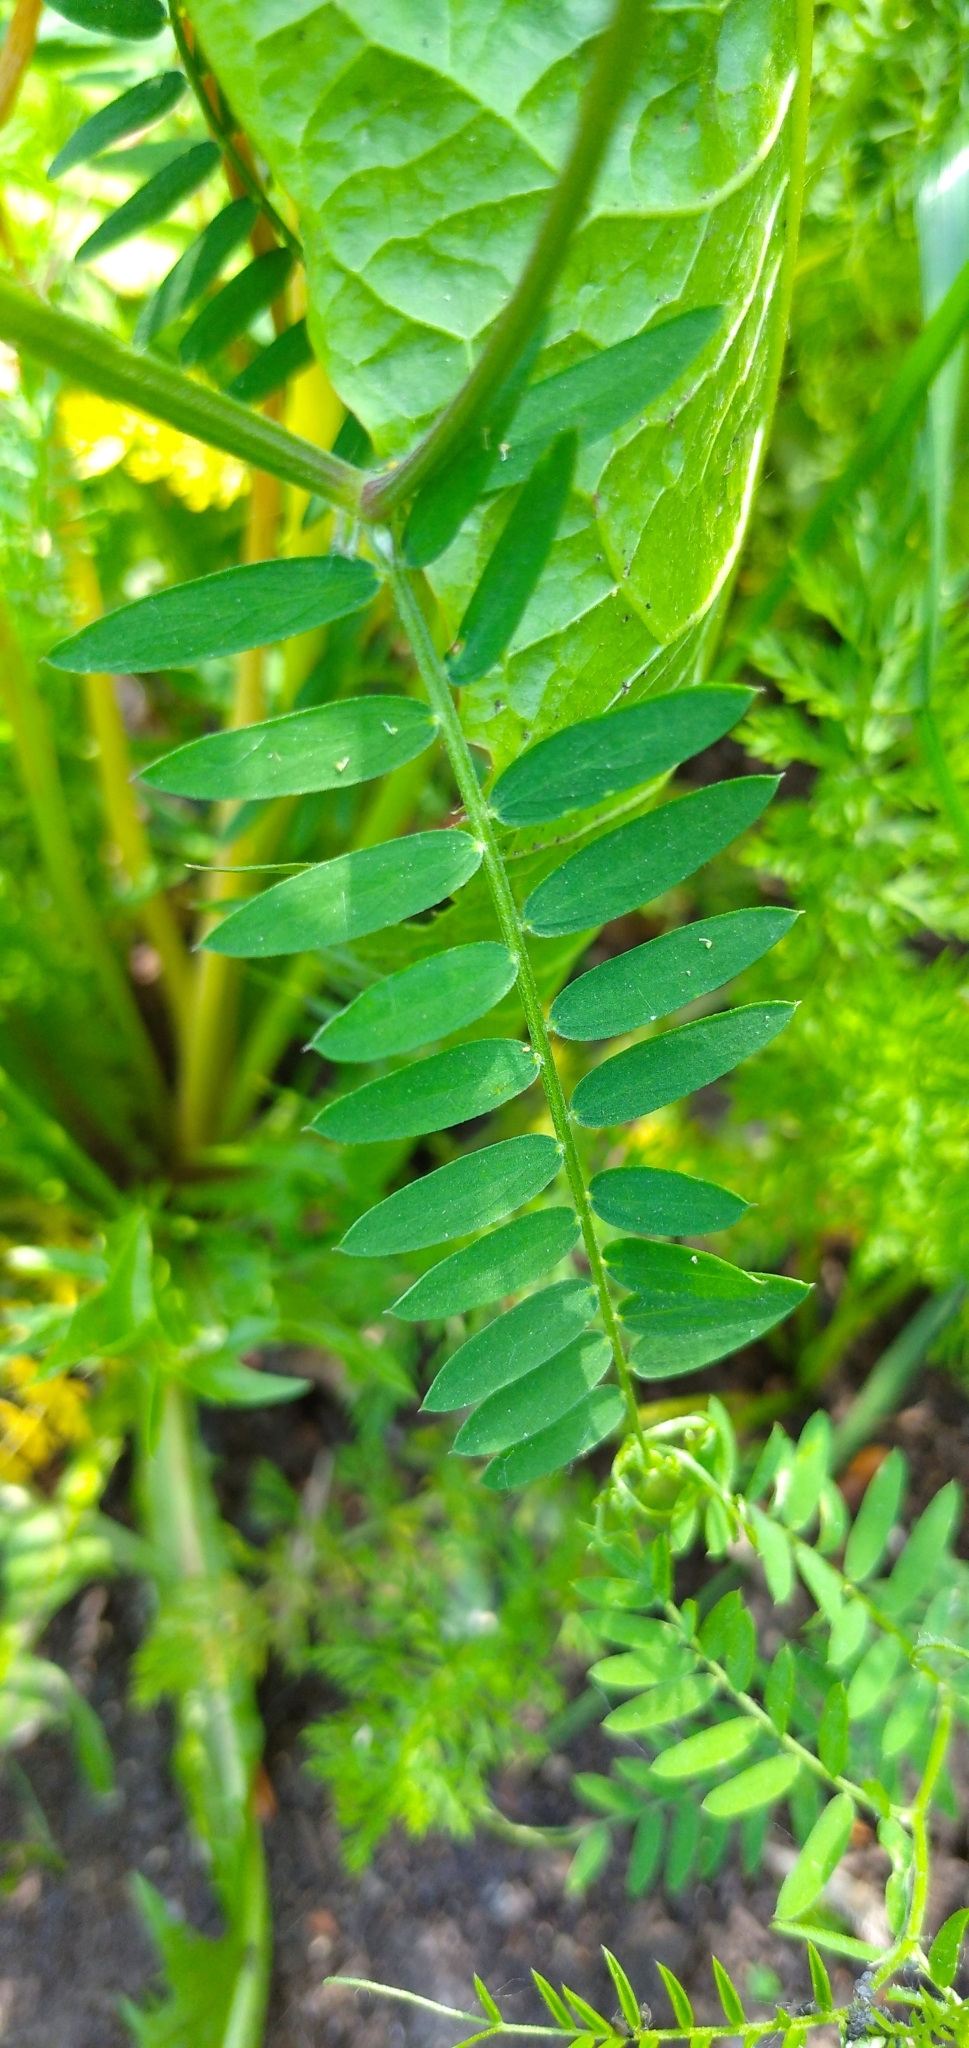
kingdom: Plantae
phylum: Tracheophyta
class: Magnoliopsida
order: Fabales
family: Fabaceae
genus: Vicia
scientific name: Vicia cracca
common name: Bird vetch
